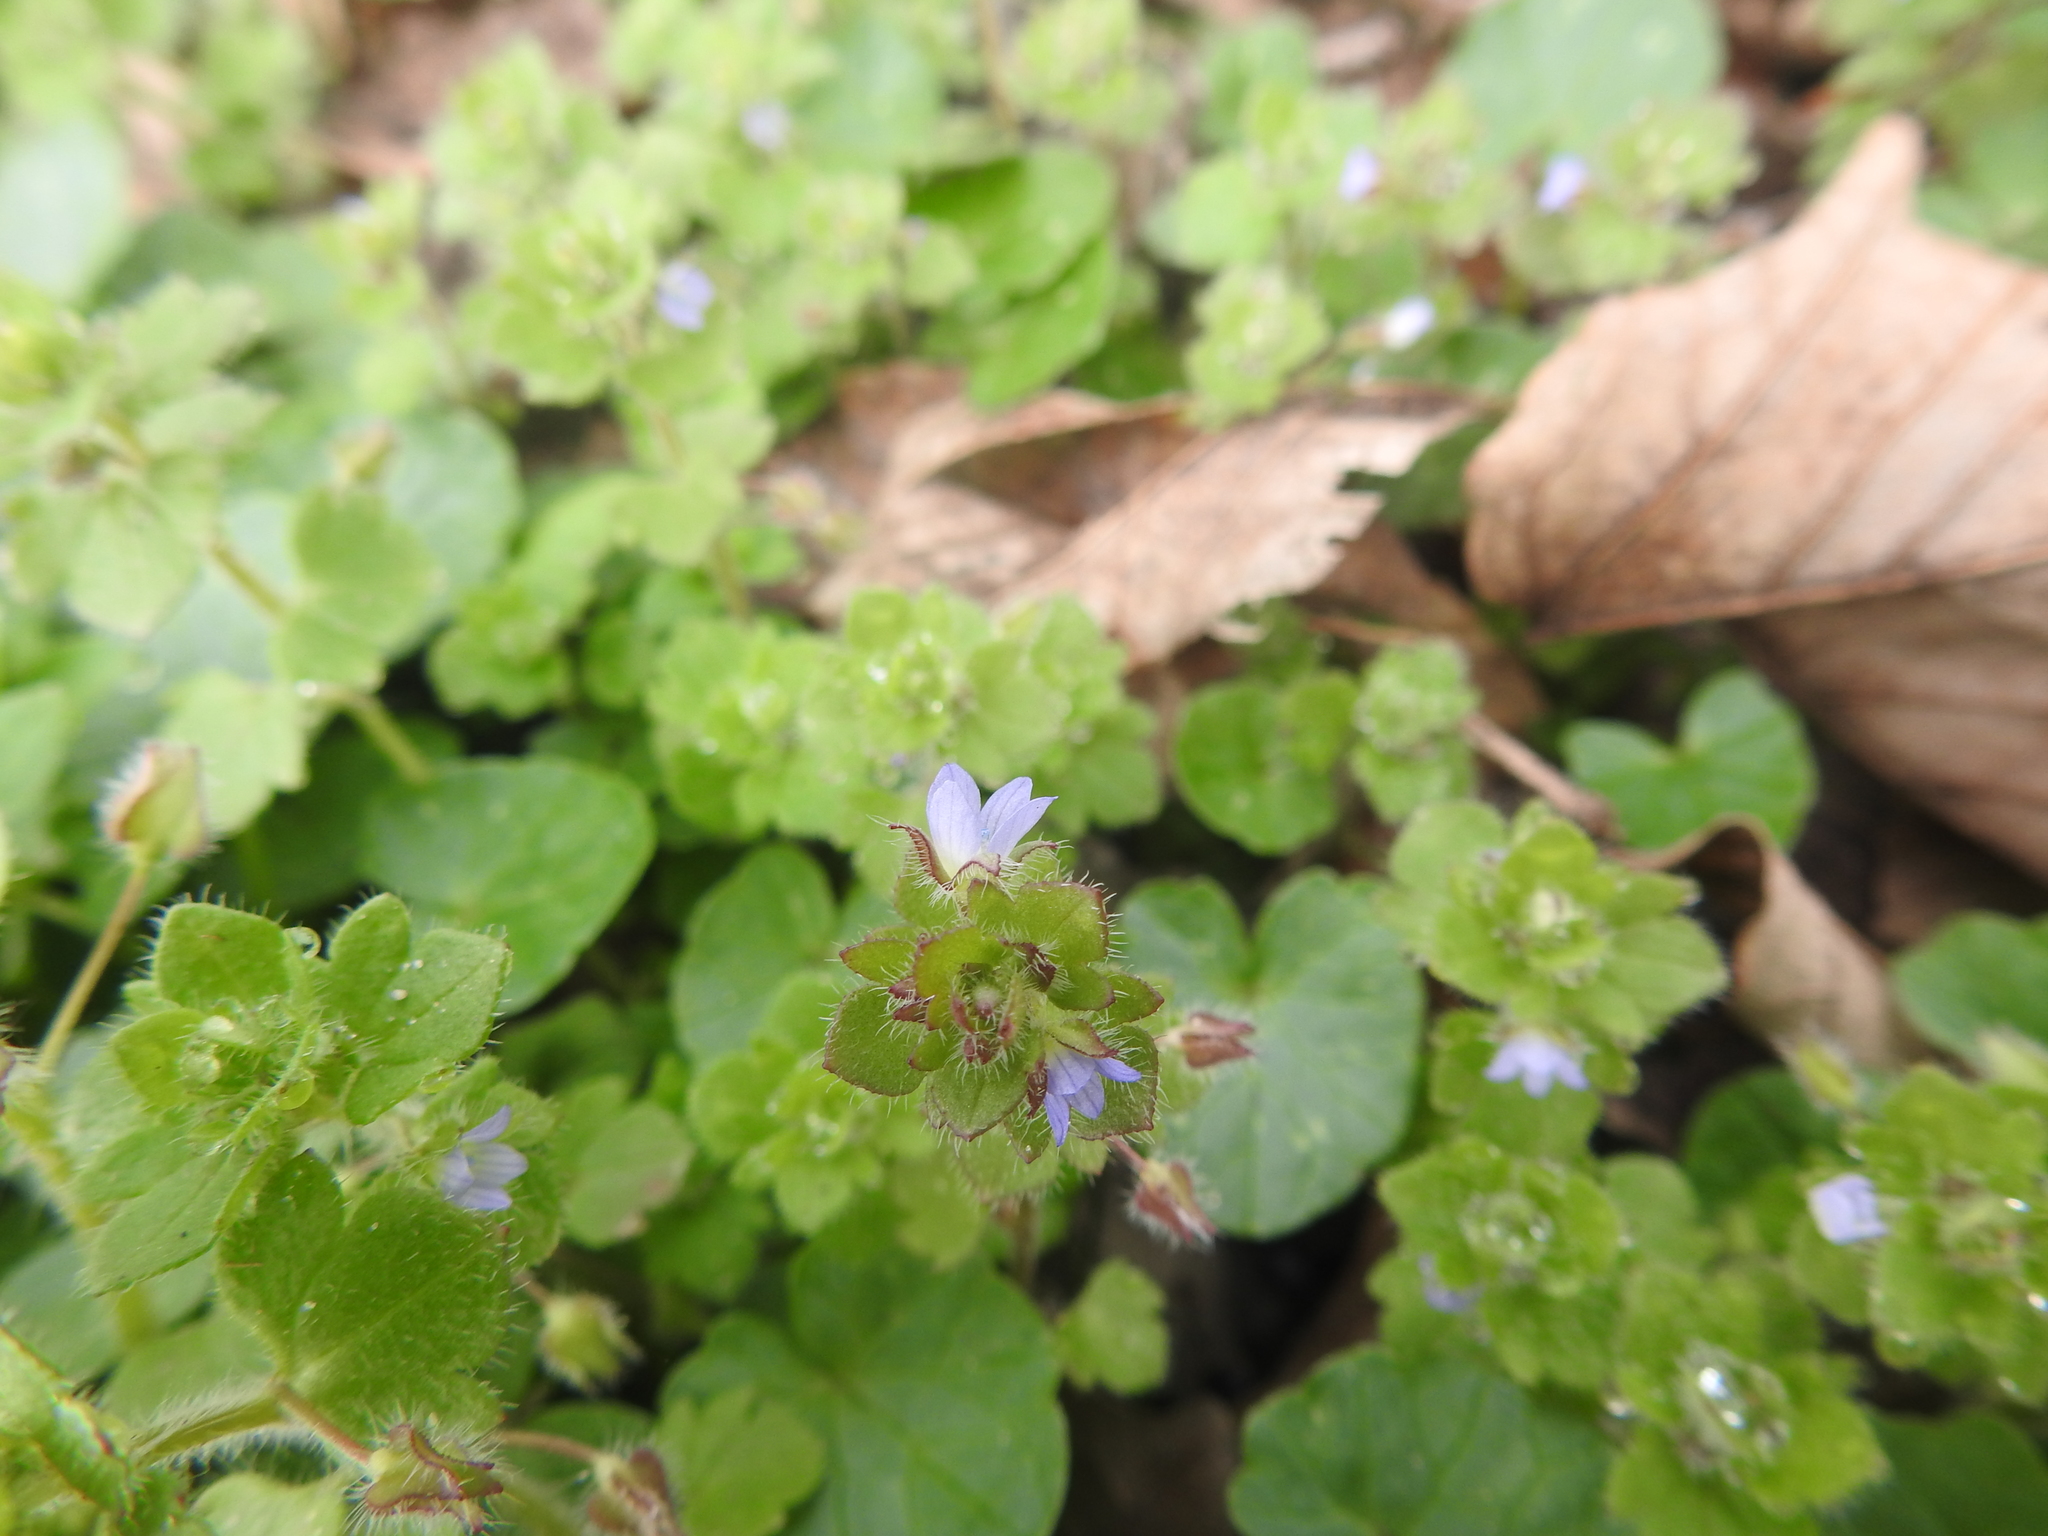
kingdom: Plantae
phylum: Tracheophyta
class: Magnoliopsida
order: Lamiales
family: Plantaginaceae
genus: Veronica
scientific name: Veronica hederifolia
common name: Ivy-leaved speedwell
